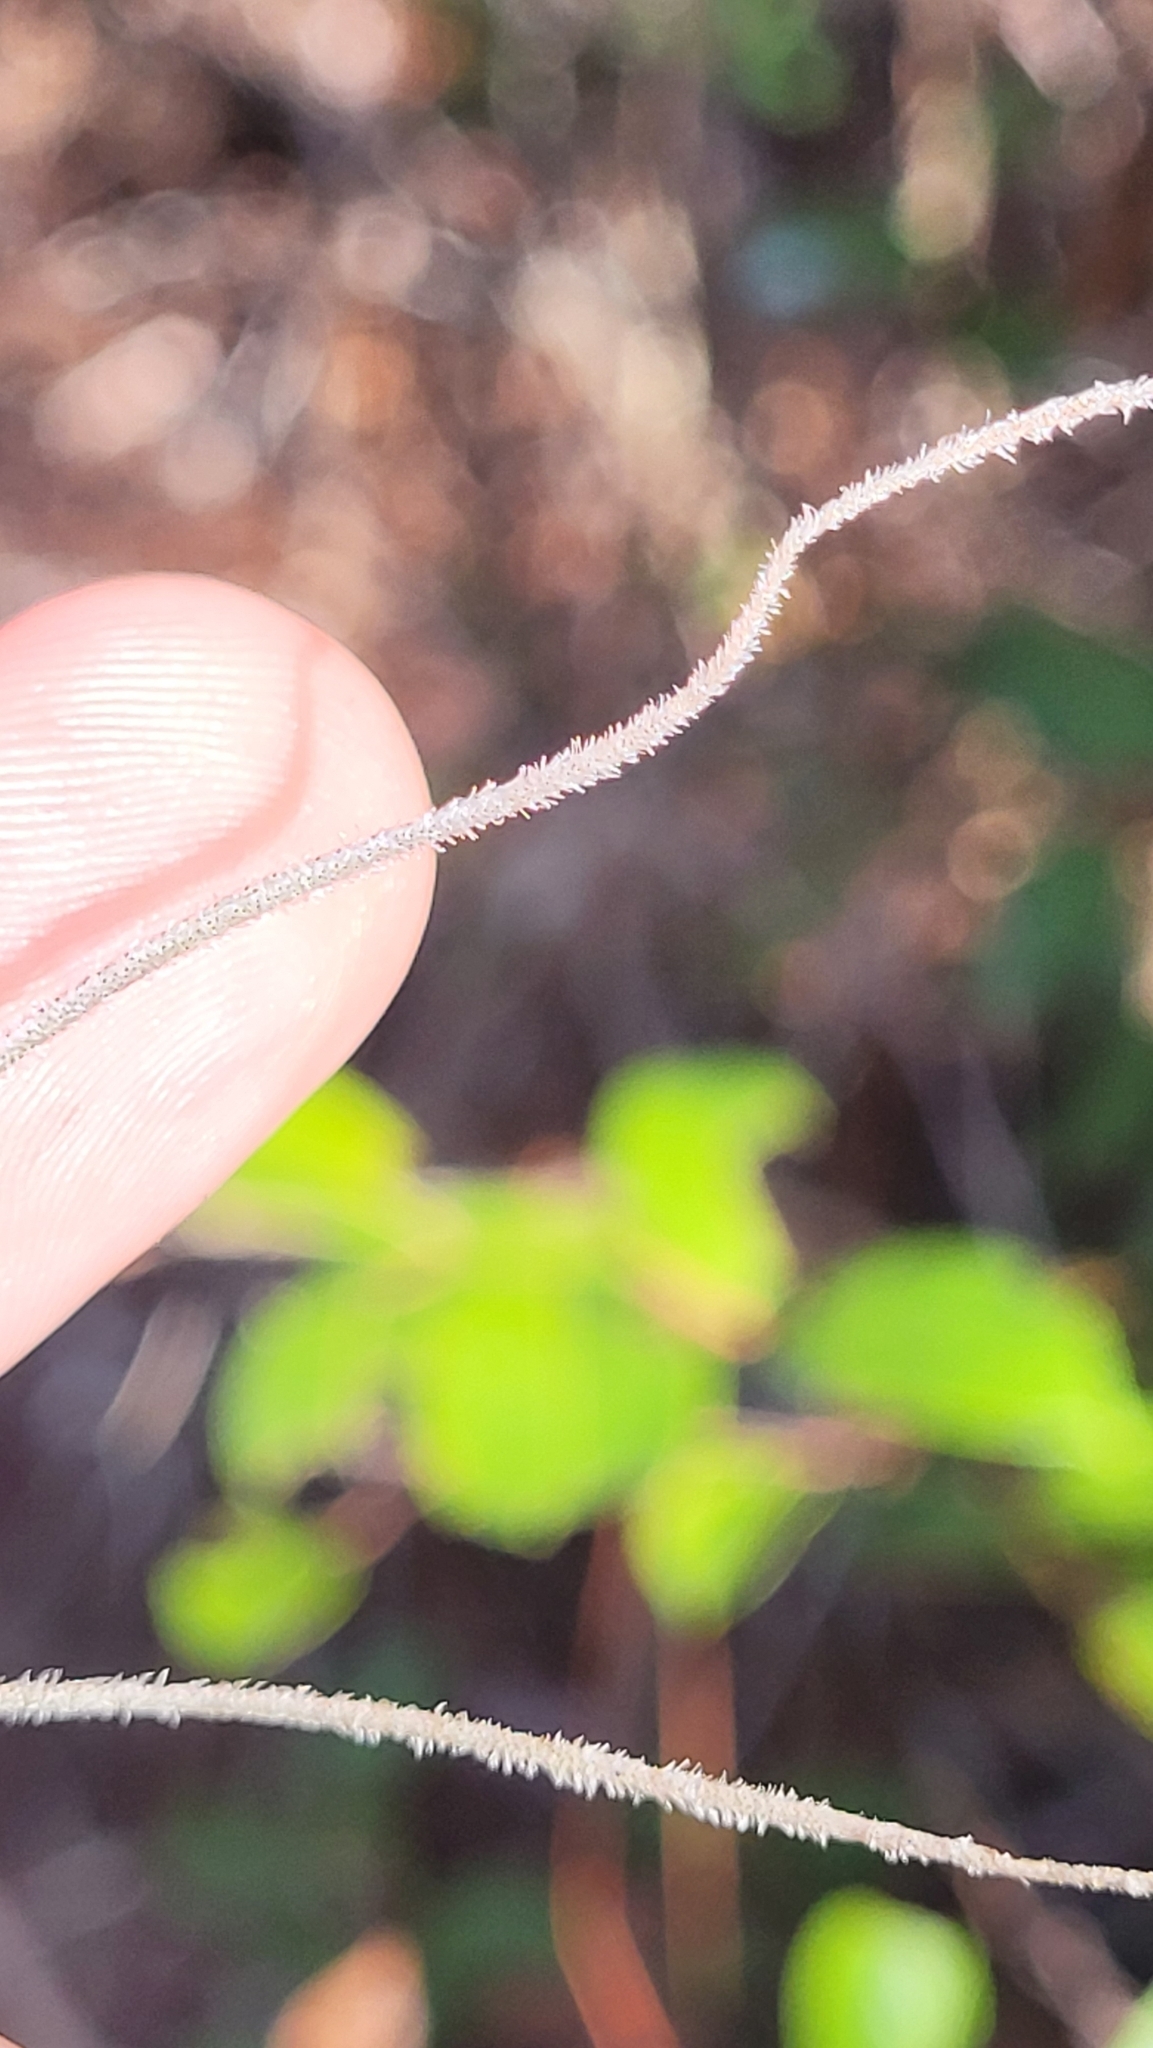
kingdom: Plantae
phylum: Tracheophyta
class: Liliopsida
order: Poales
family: Bromeliaceae
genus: Tillandsia
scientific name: Tillandsia usneoides
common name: Spanish moss
